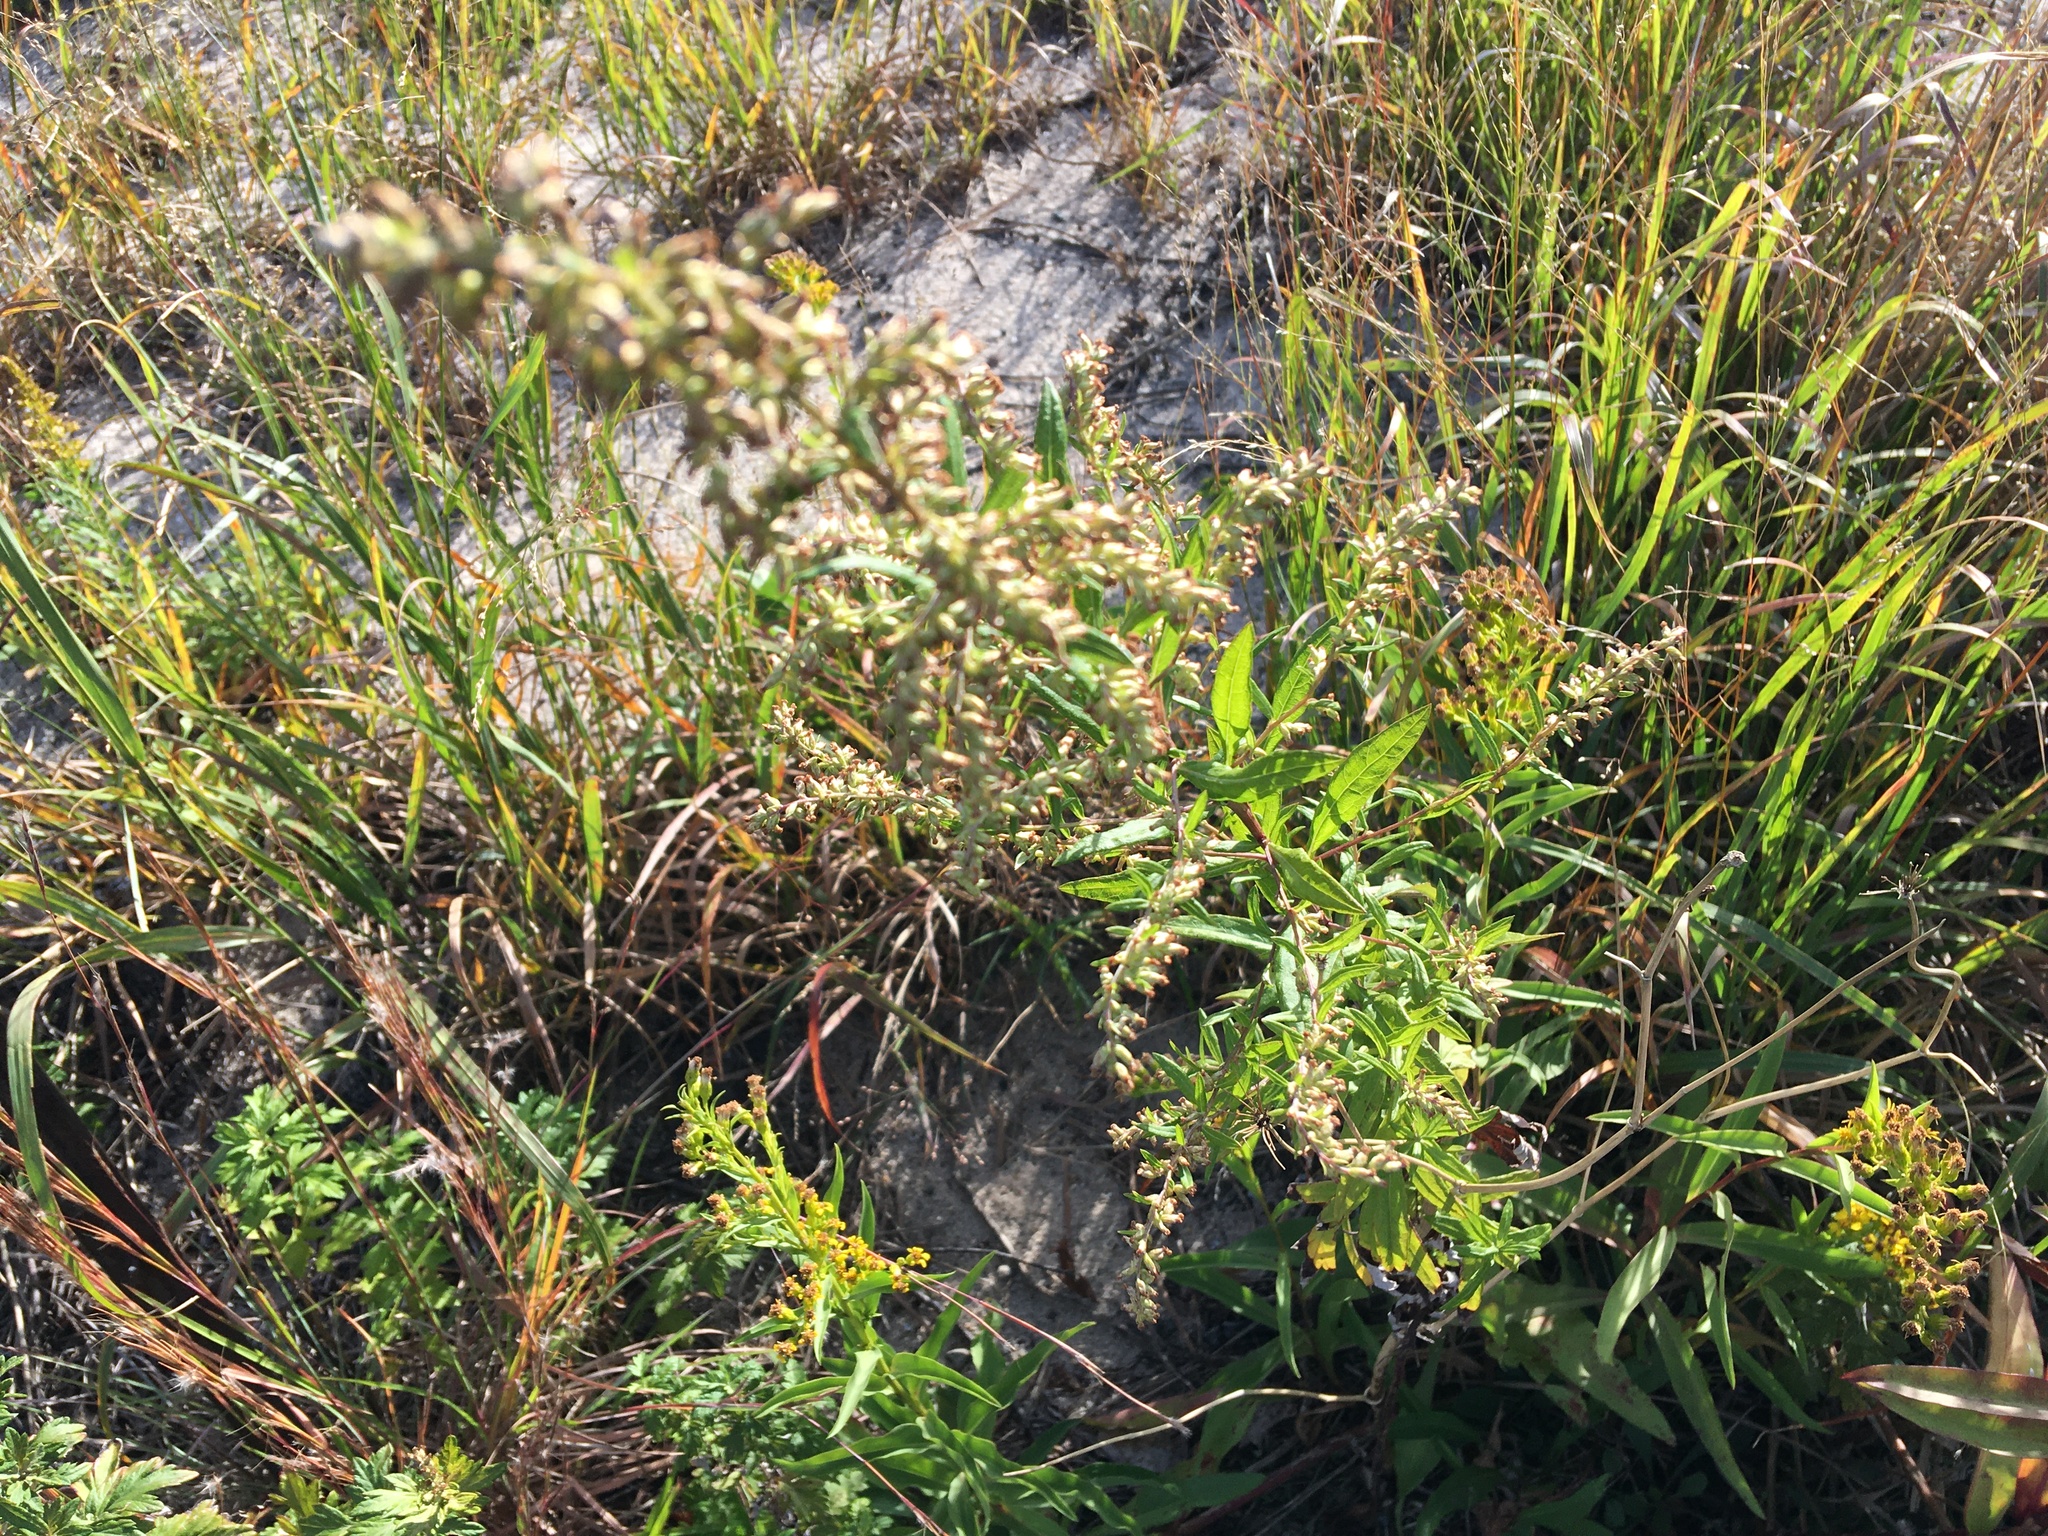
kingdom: Plantae
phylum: Tracheophyta
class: Magnoliopsida
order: Asterales
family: Asteraceae
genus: Artemisia
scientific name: Artemisia vulgaris
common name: Mugwort
